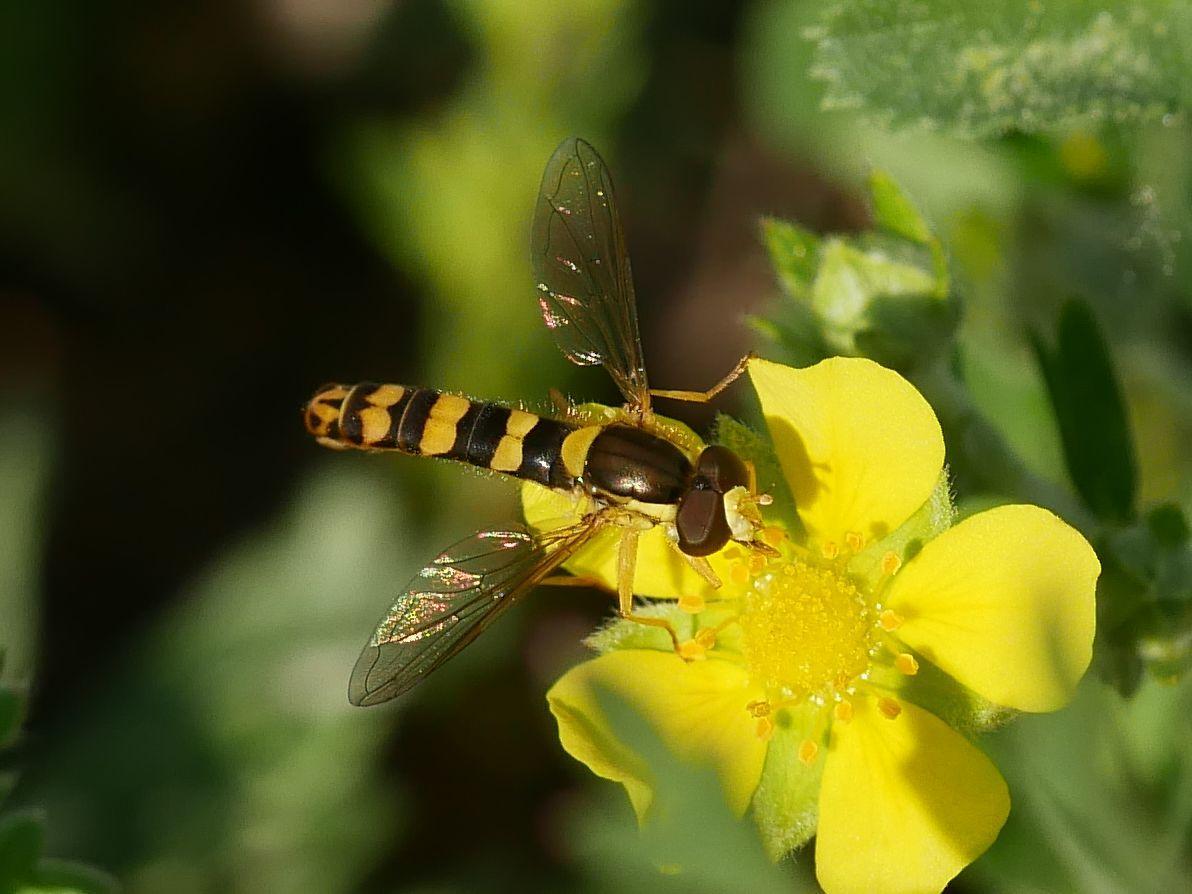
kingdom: Animalia
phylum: Arthropoda
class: Insecta
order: Diptera
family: Syrphidae
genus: Sphaerophoria
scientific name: Sphaerophoria scripta
